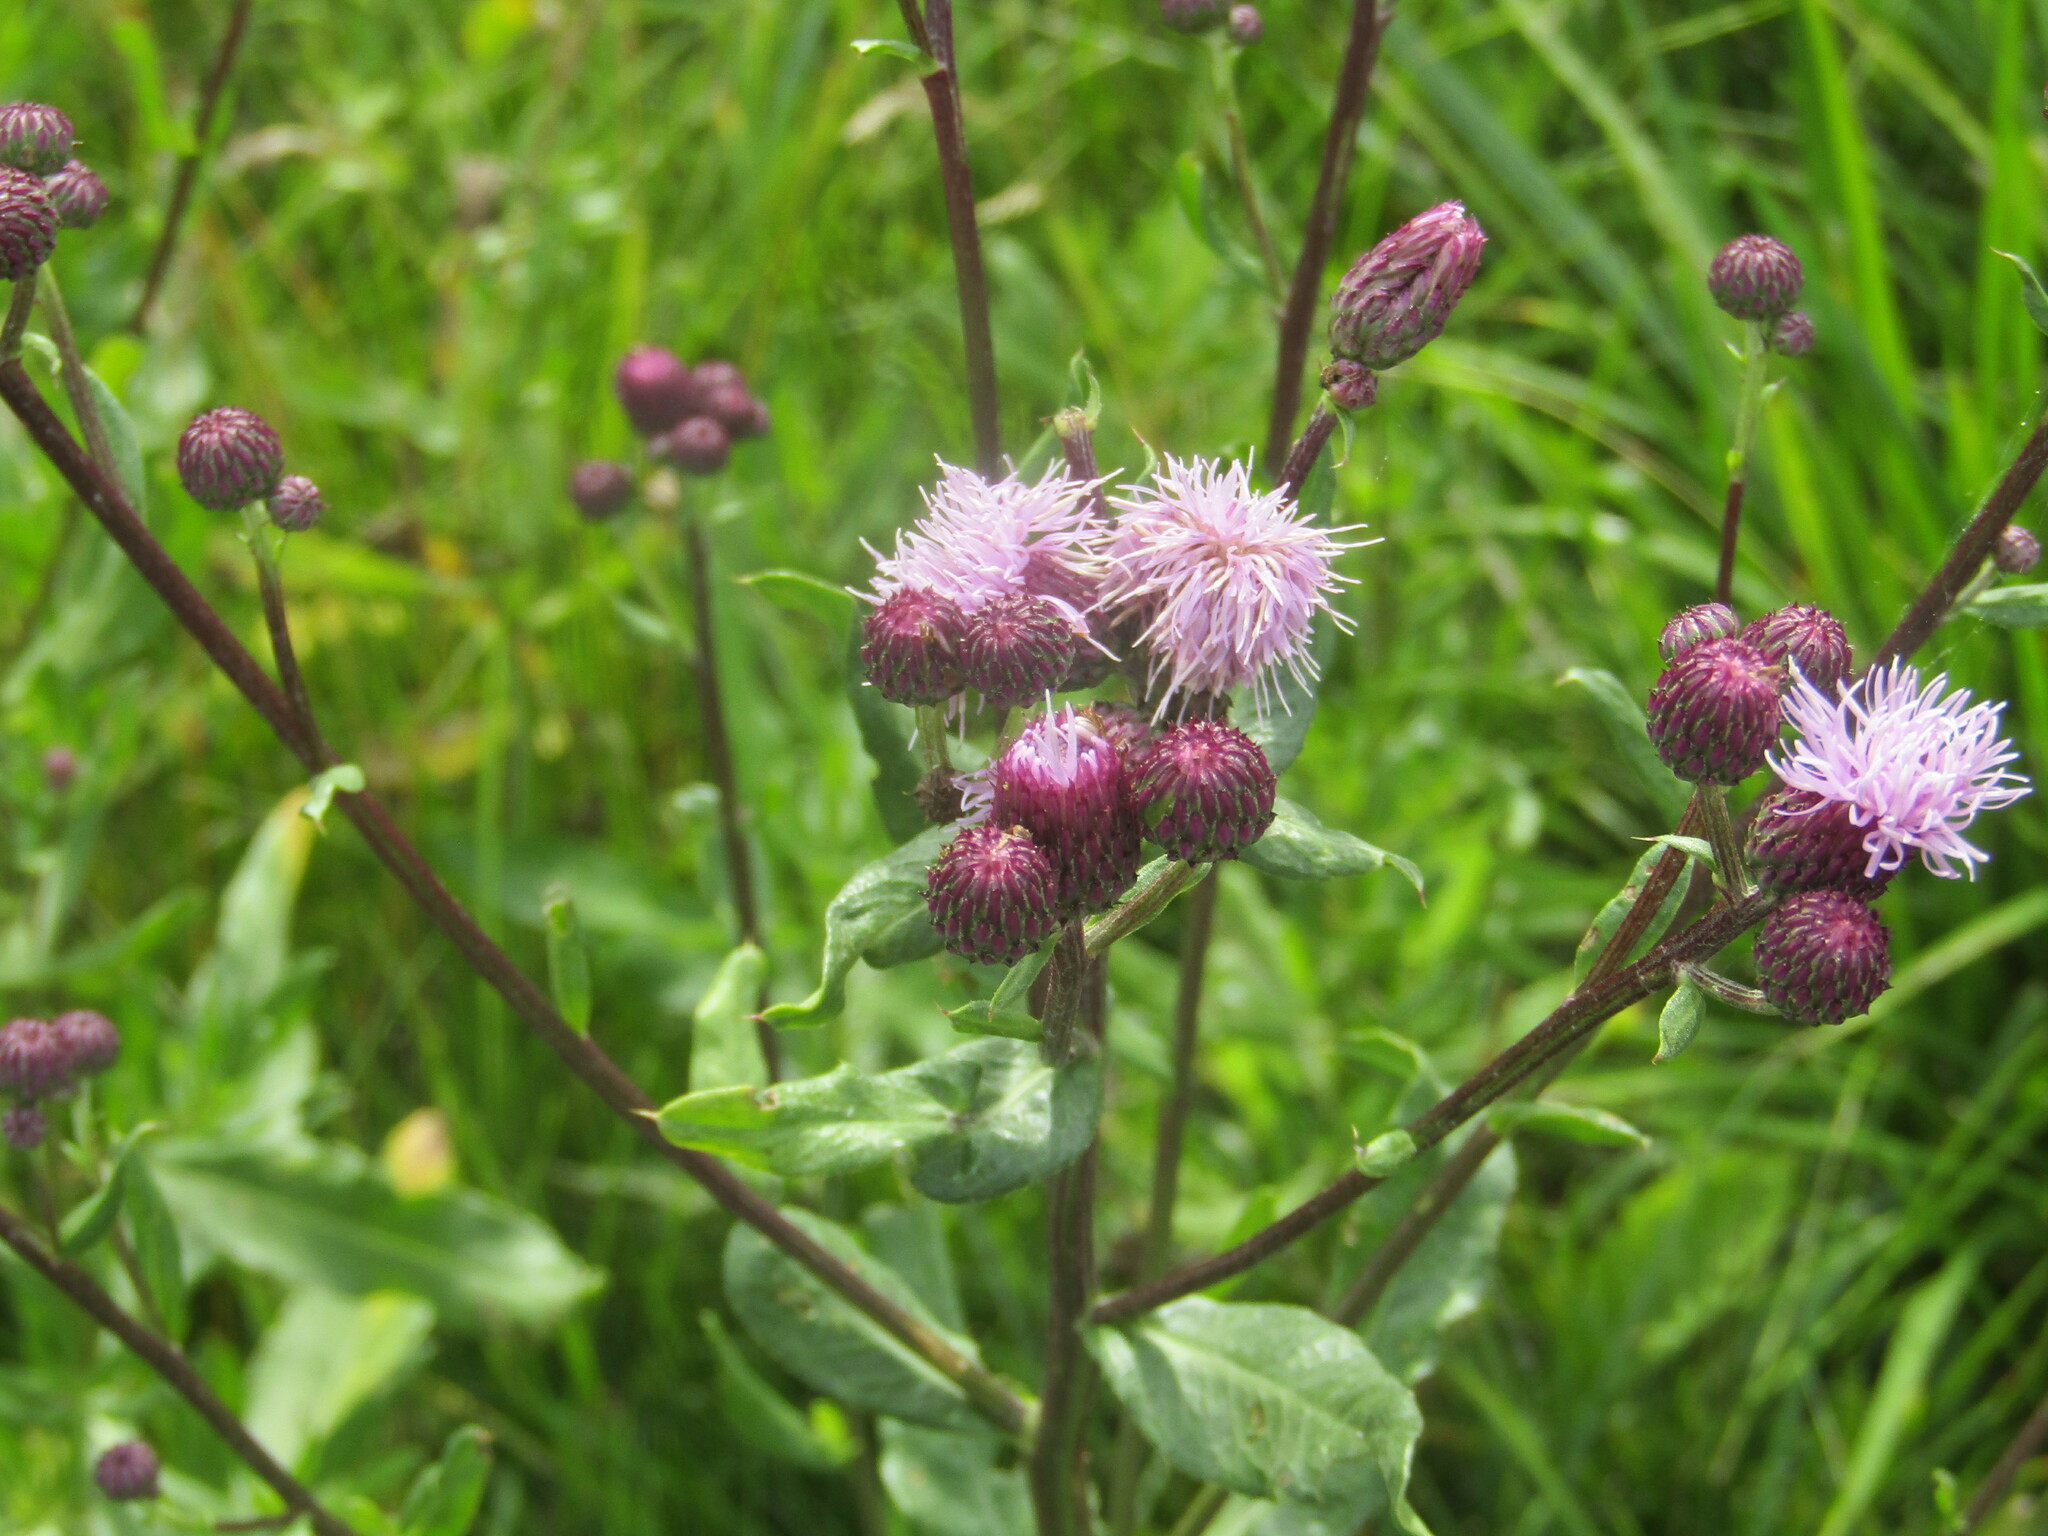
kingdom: Plantae
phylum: Tracheophyta
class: Magnoliopsida
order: Asterales
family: Asteraceae
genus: Cirsium
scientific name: Cirsium arvense
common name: Creeping thistle
